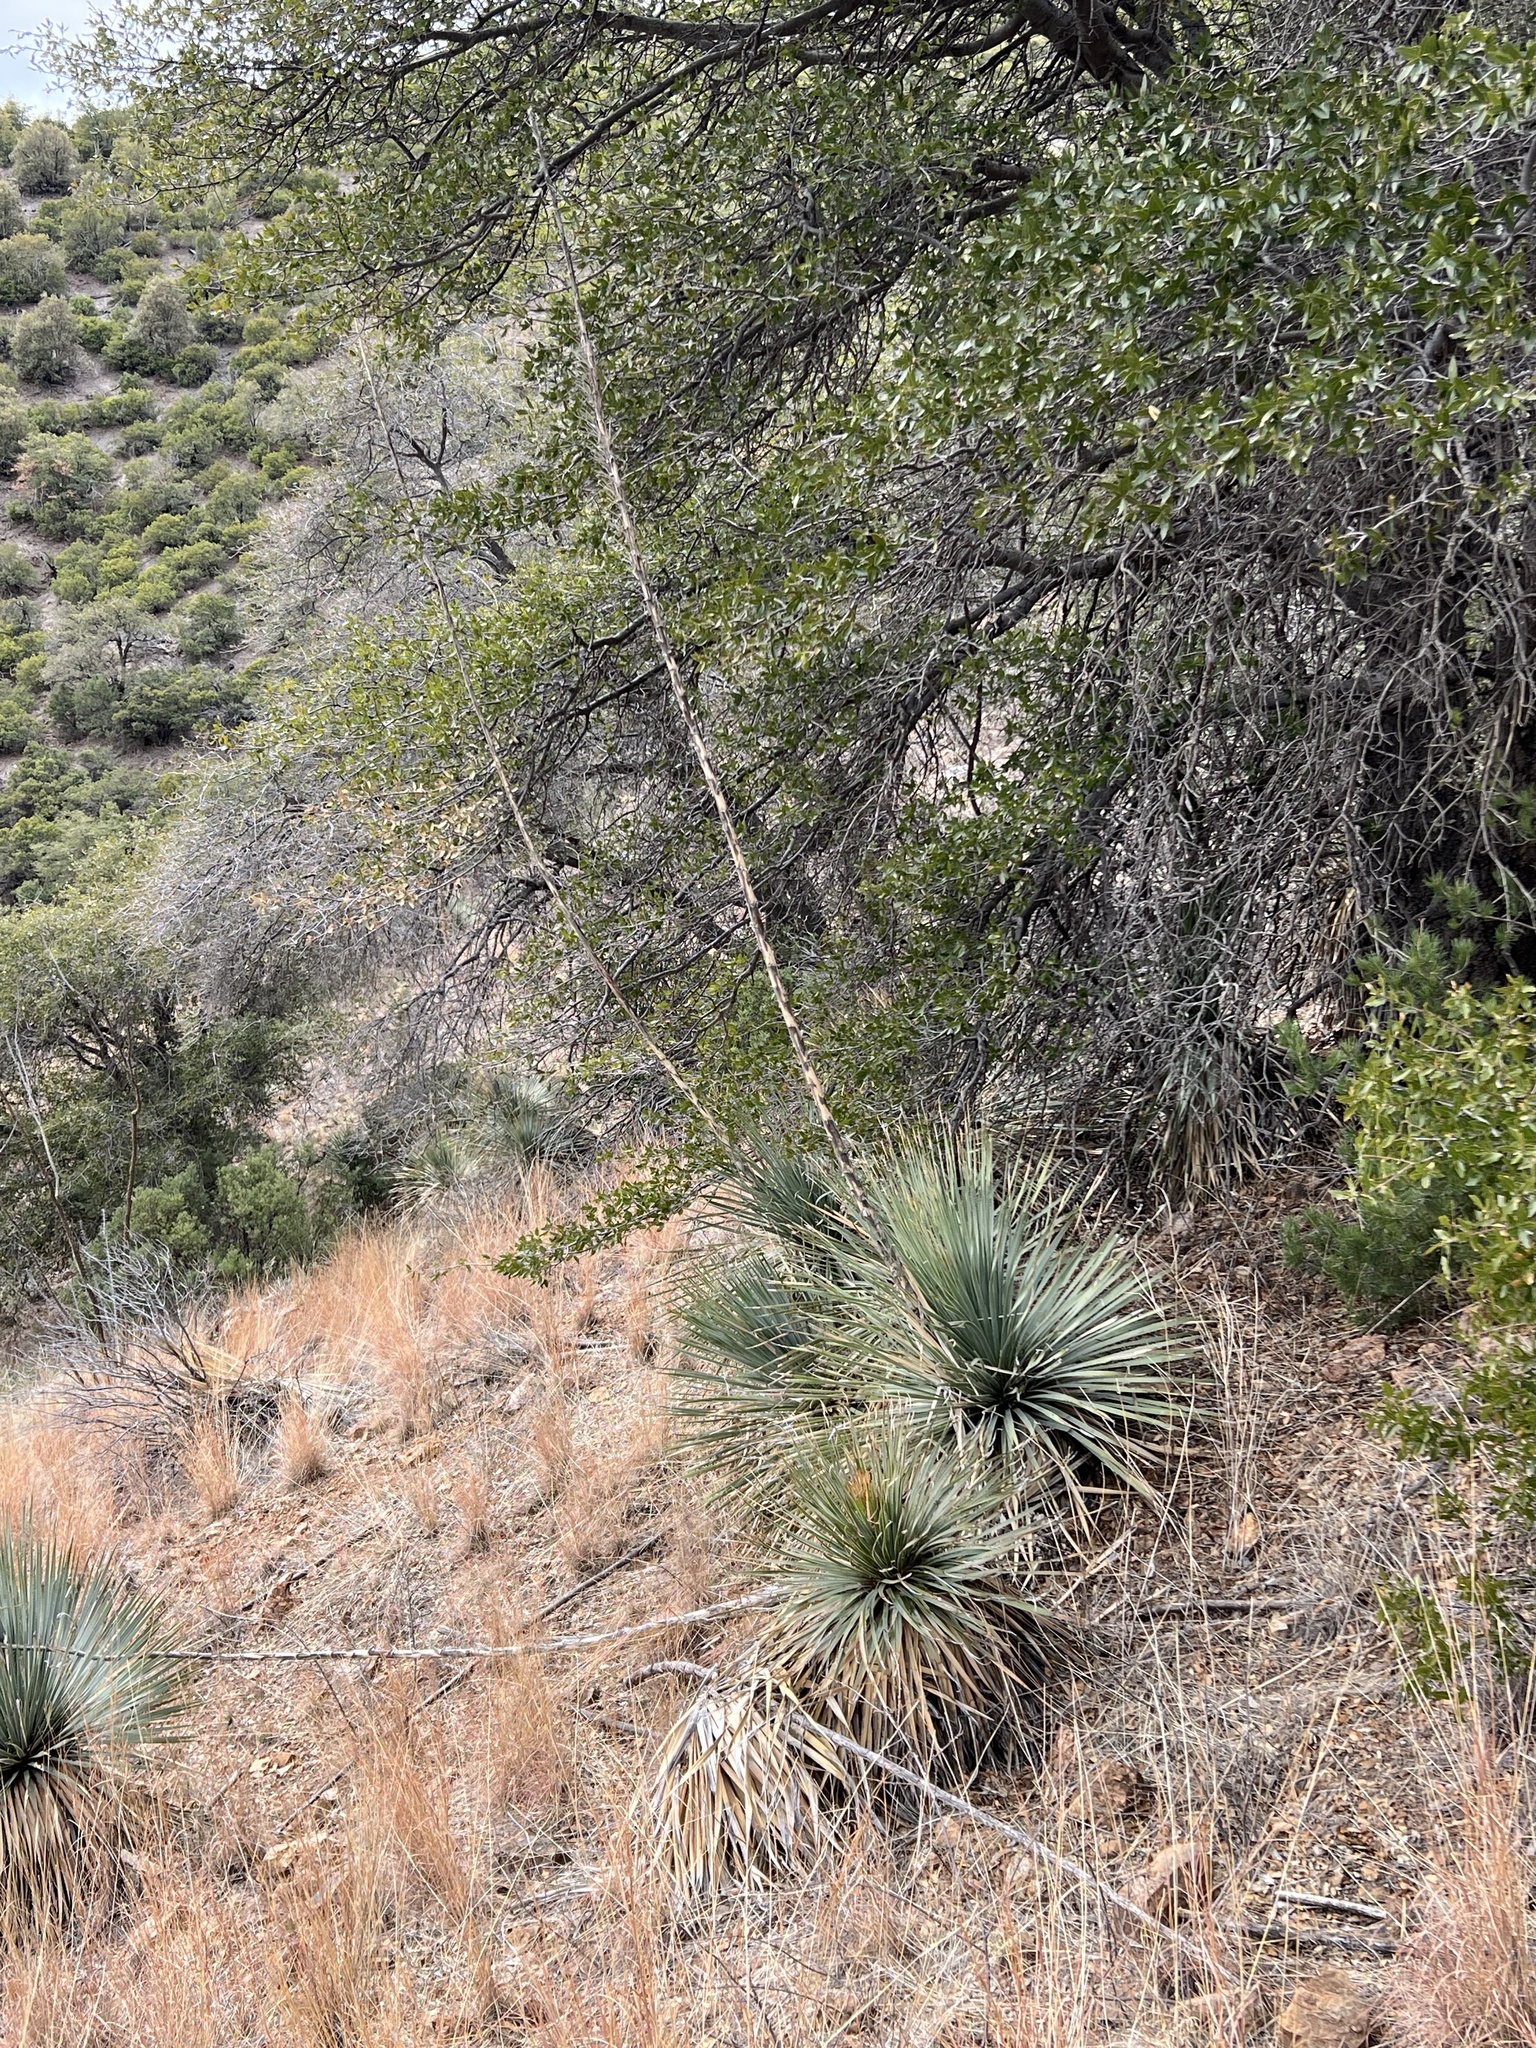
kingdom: Plantae
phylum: Tracheophyta
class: Liliopsida
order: Asparagales
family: Asparagaceae
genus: Dasylirion
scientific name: Dasylirion wheeleri
